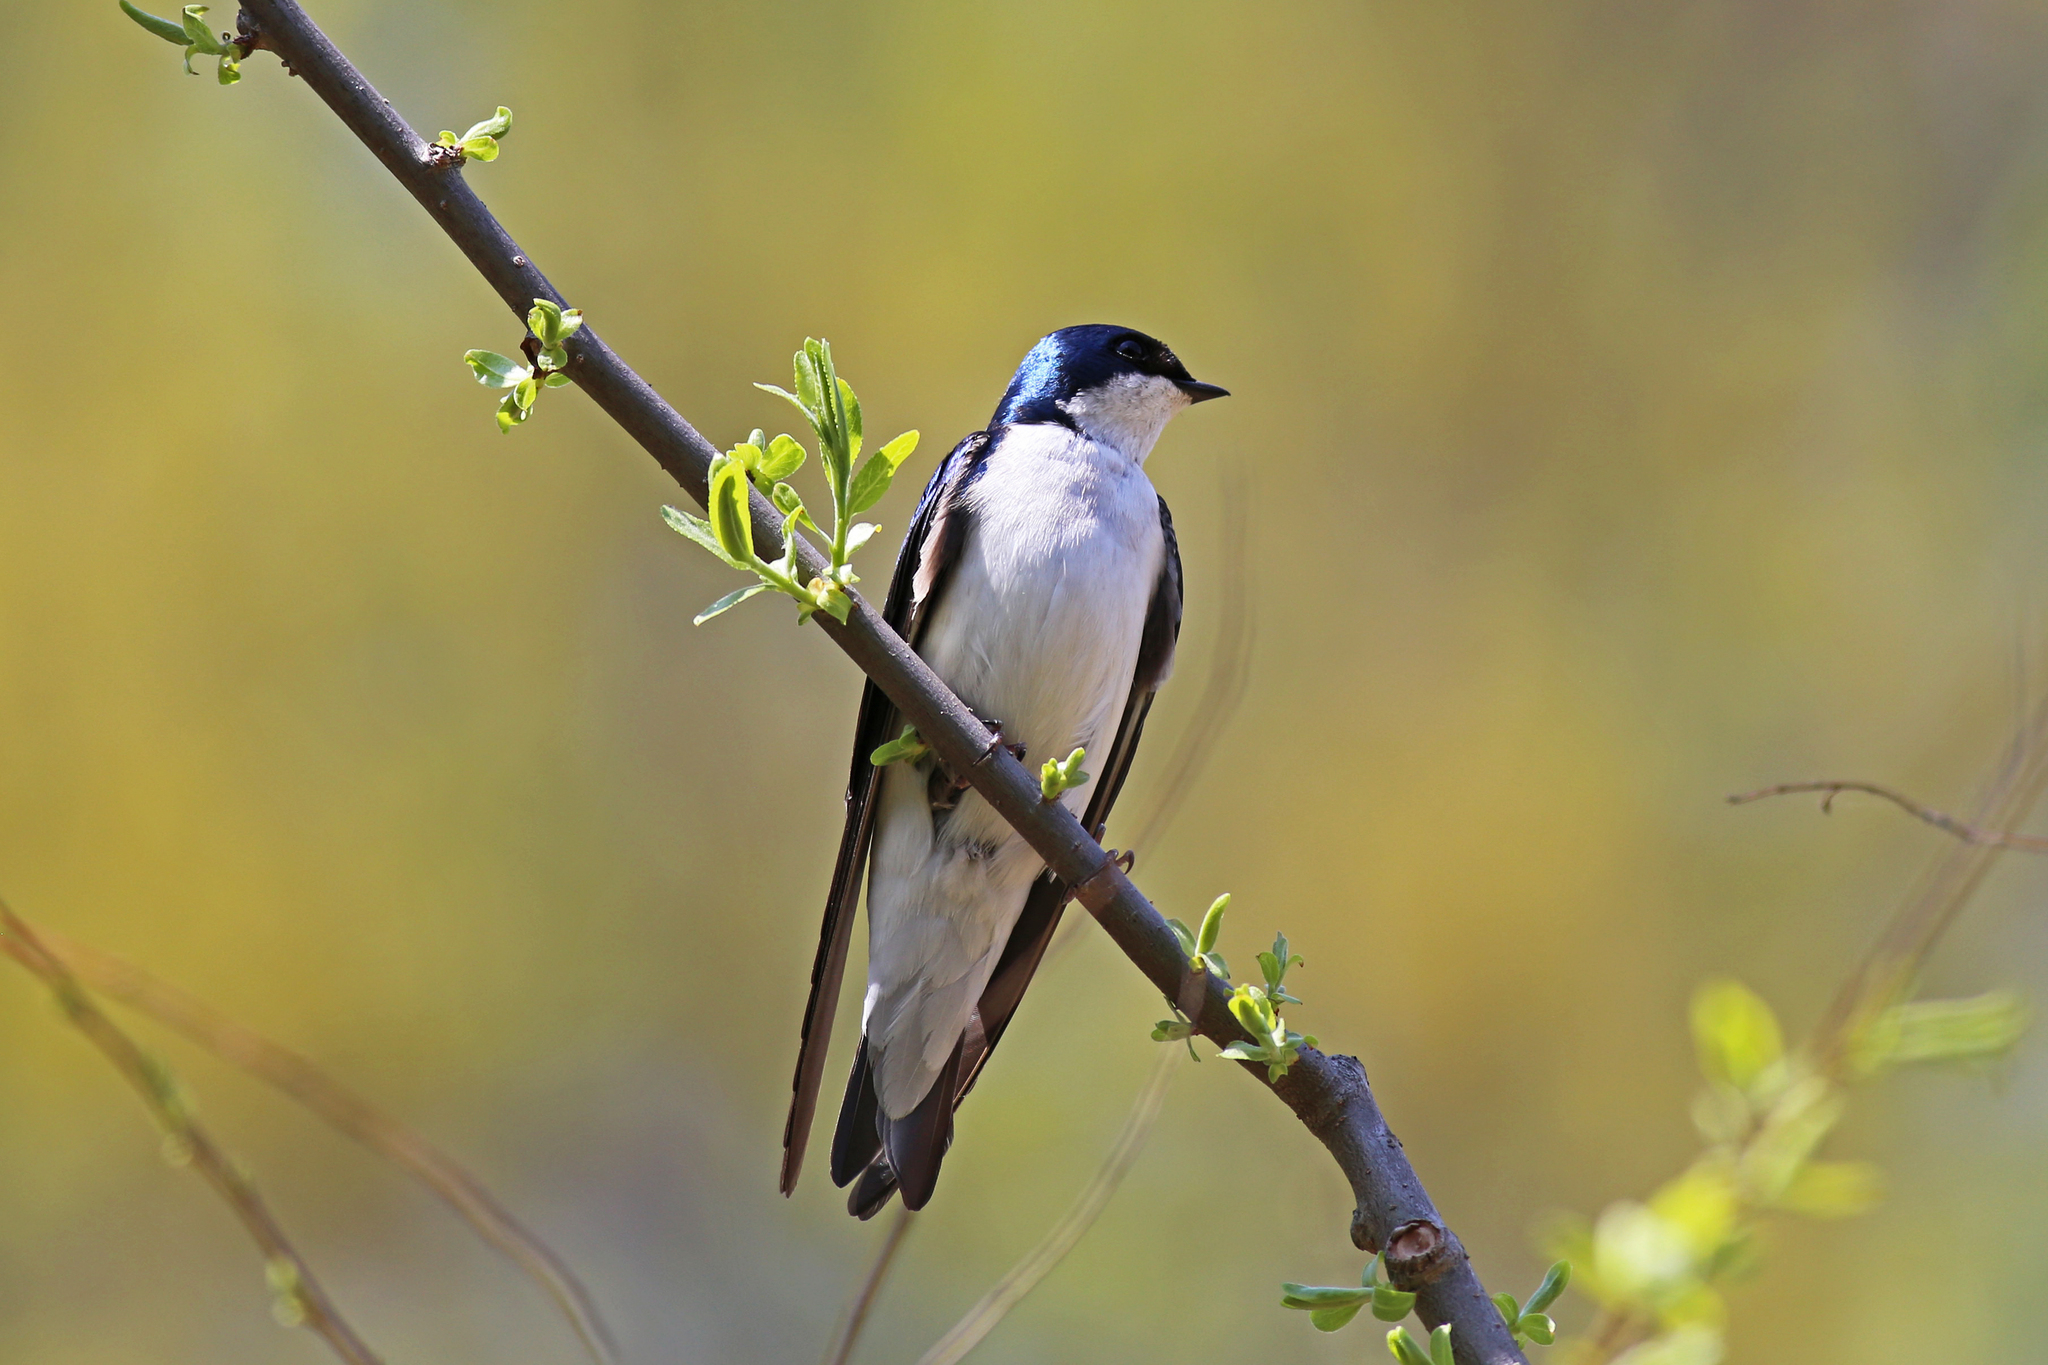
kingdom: Animalia
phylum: Chordata
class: Aves
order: Passeriformes
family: Hirundinidae
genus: Tachycineta
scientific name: Tachycineta bicolor
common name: Tree swallow
